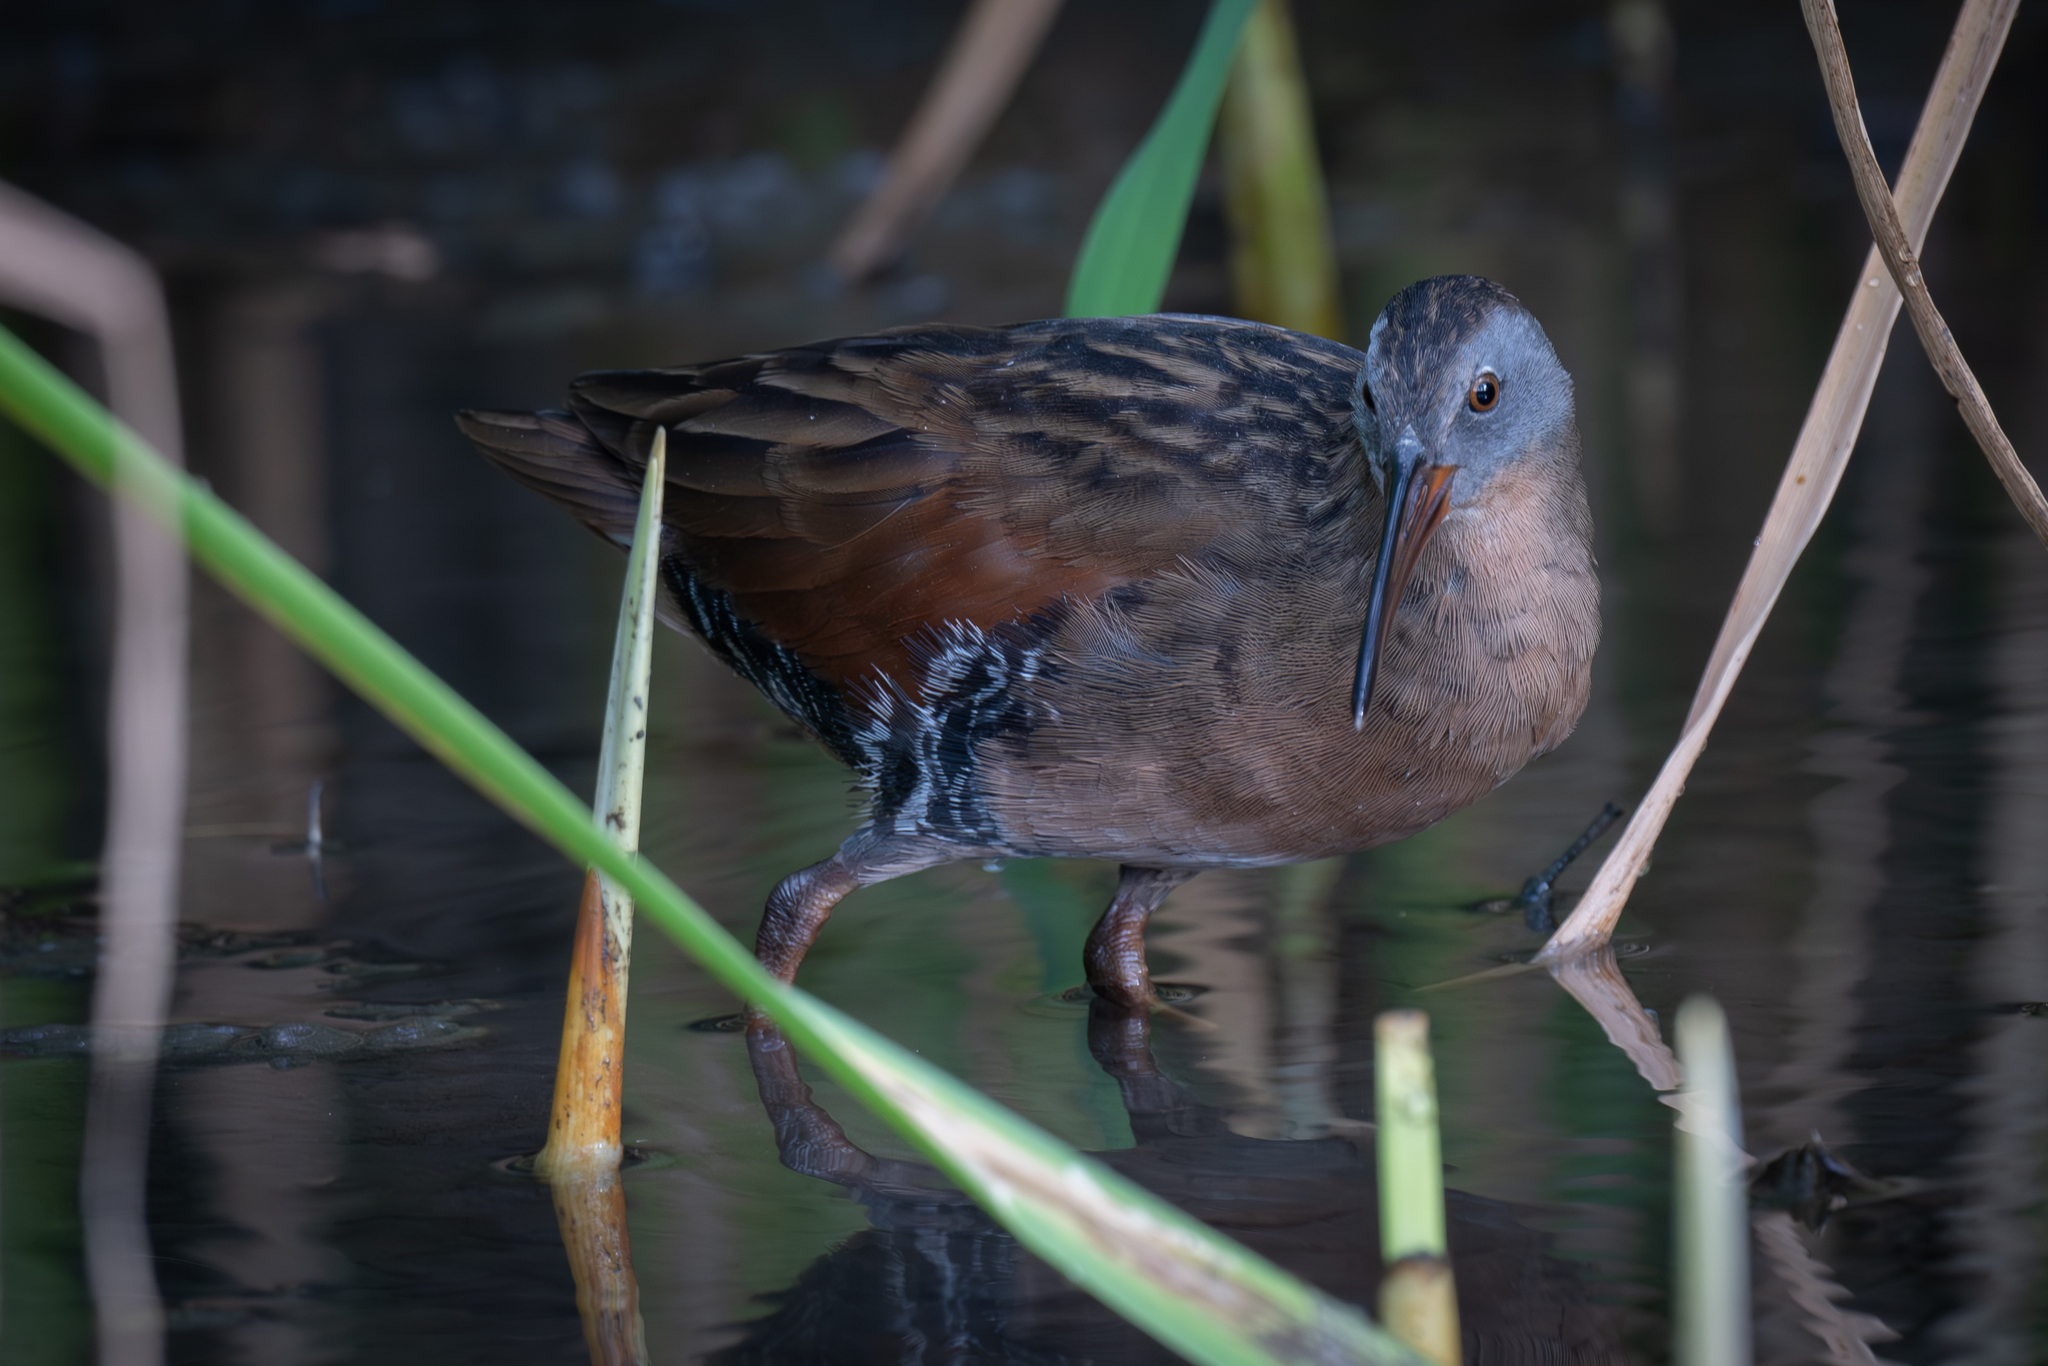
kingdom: Animalia
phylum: Chordata
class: Aves
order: Gruiformes
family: Rallidae
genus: Rallus
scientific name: Rallus limicola
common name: Virginia rail
